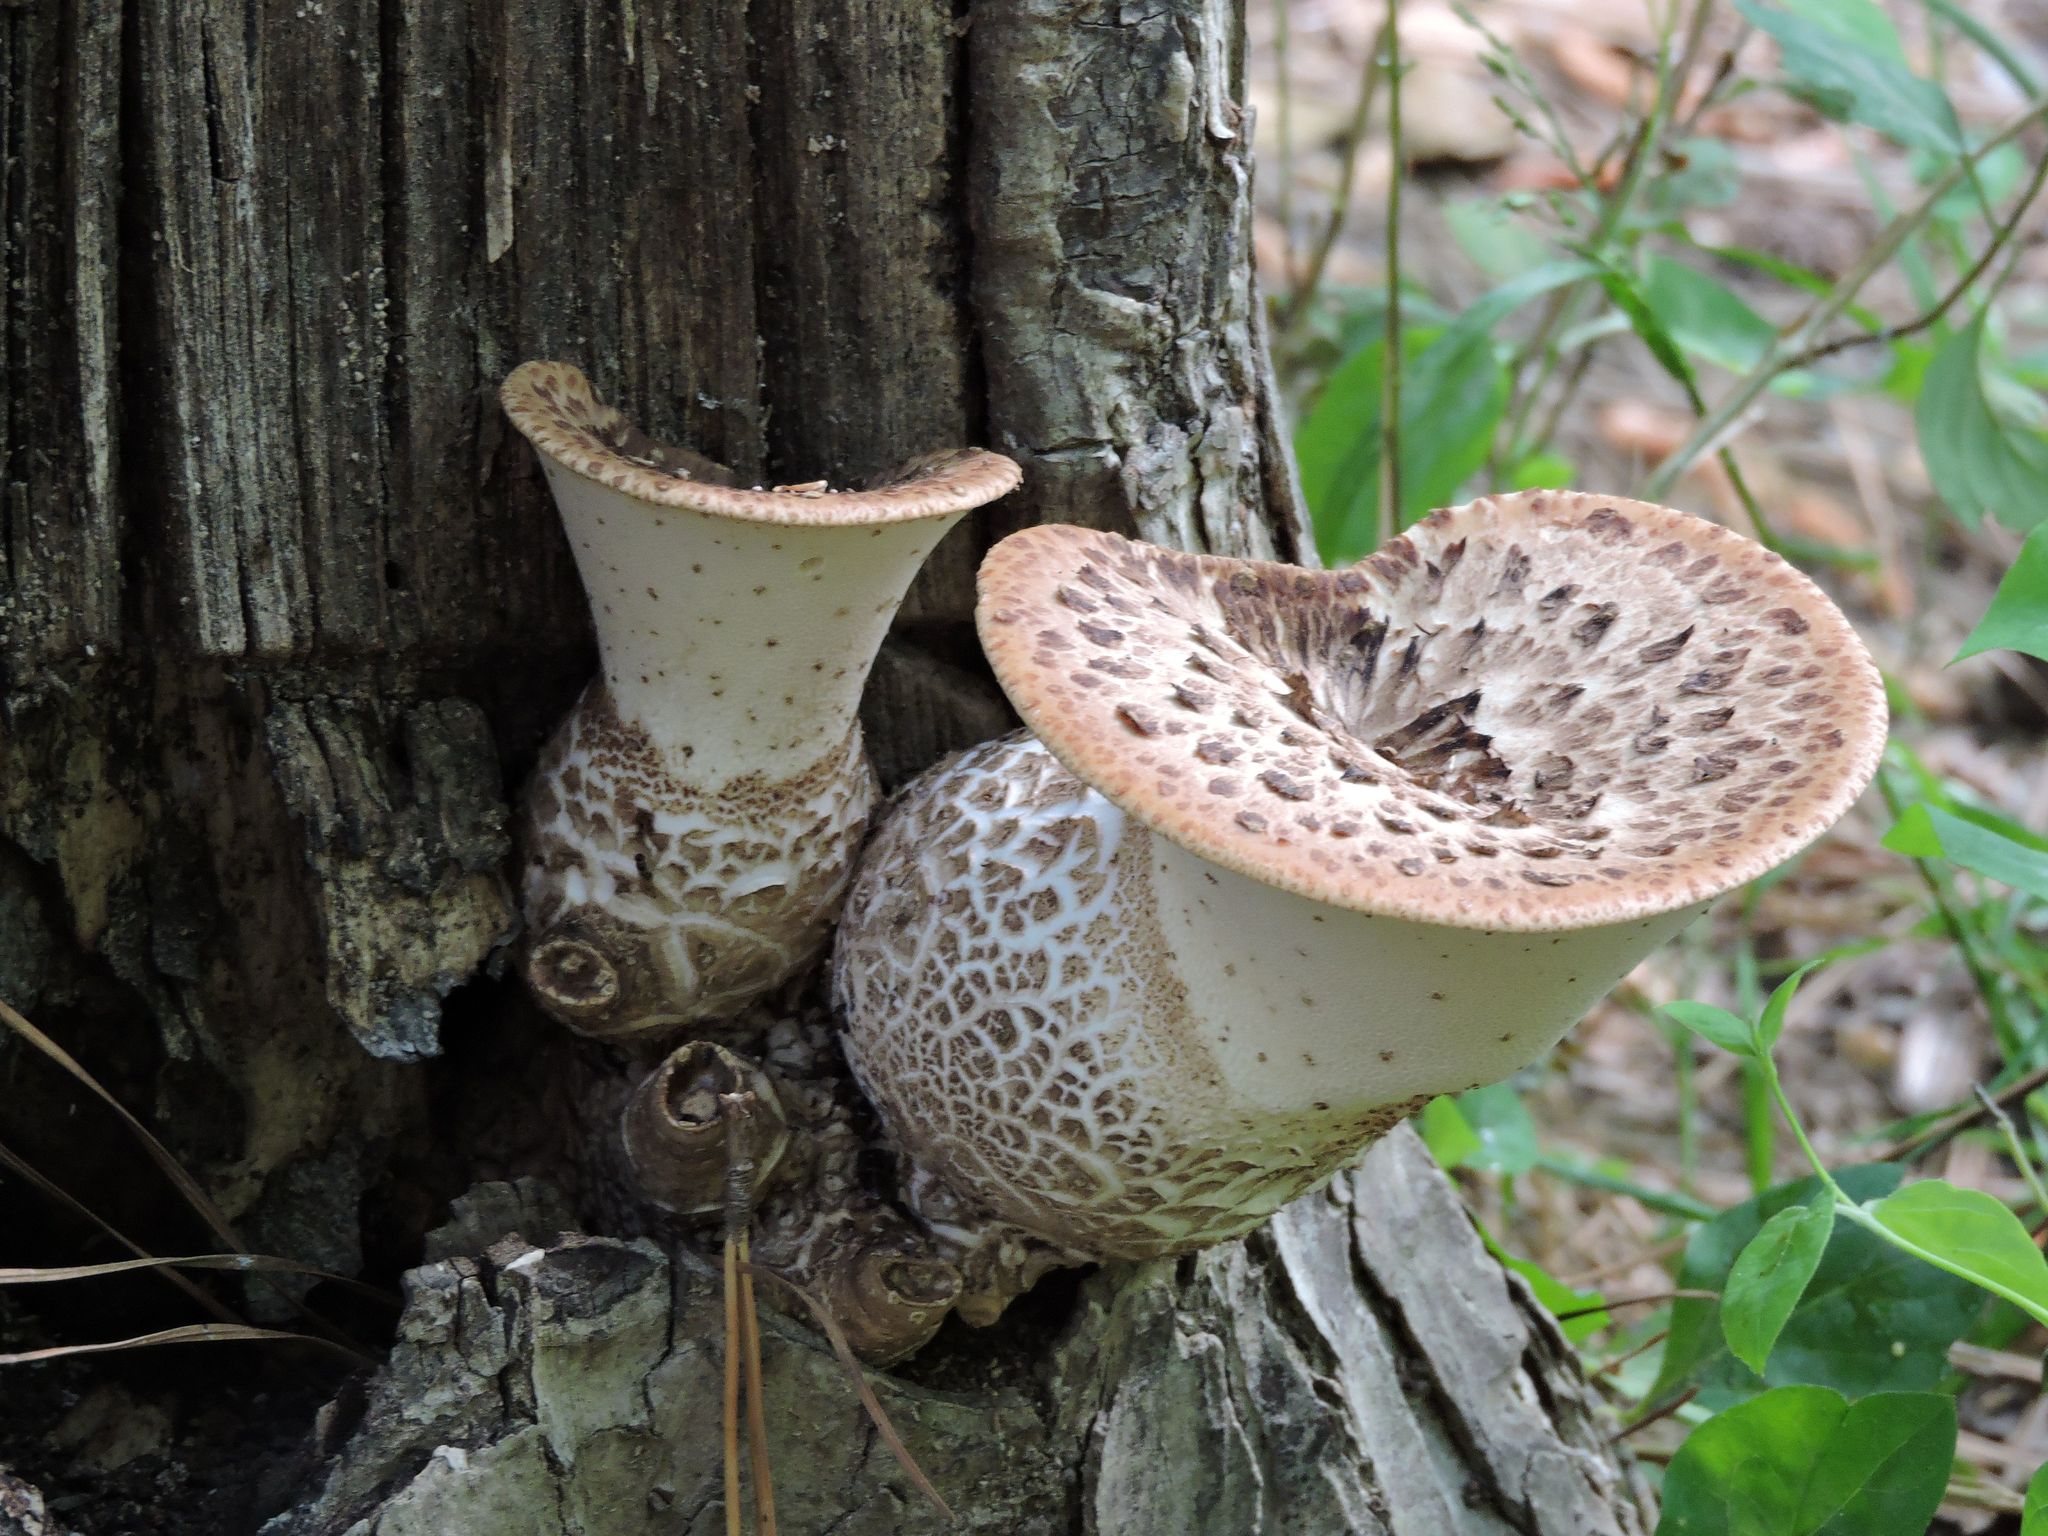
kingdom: Fungi
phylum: Basidiomycota
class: Agaricomycetes
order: Polyporales
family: Polyporaceae
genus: Cerioporus
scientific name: Cerioporus squamosus
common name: Dryad's saddle
